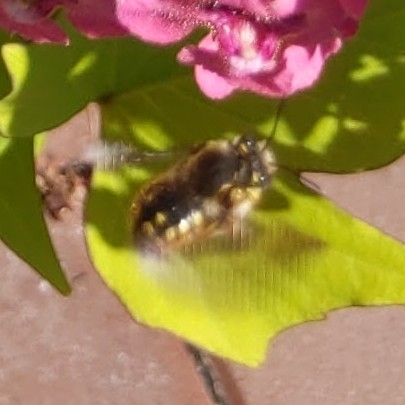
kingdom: Animalia
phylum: Arthropoda
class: Insecta
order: Hymenoptera
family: Megachilidae
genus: Anthidium
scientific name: Anthidium manicatum
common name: Wool carder bee
